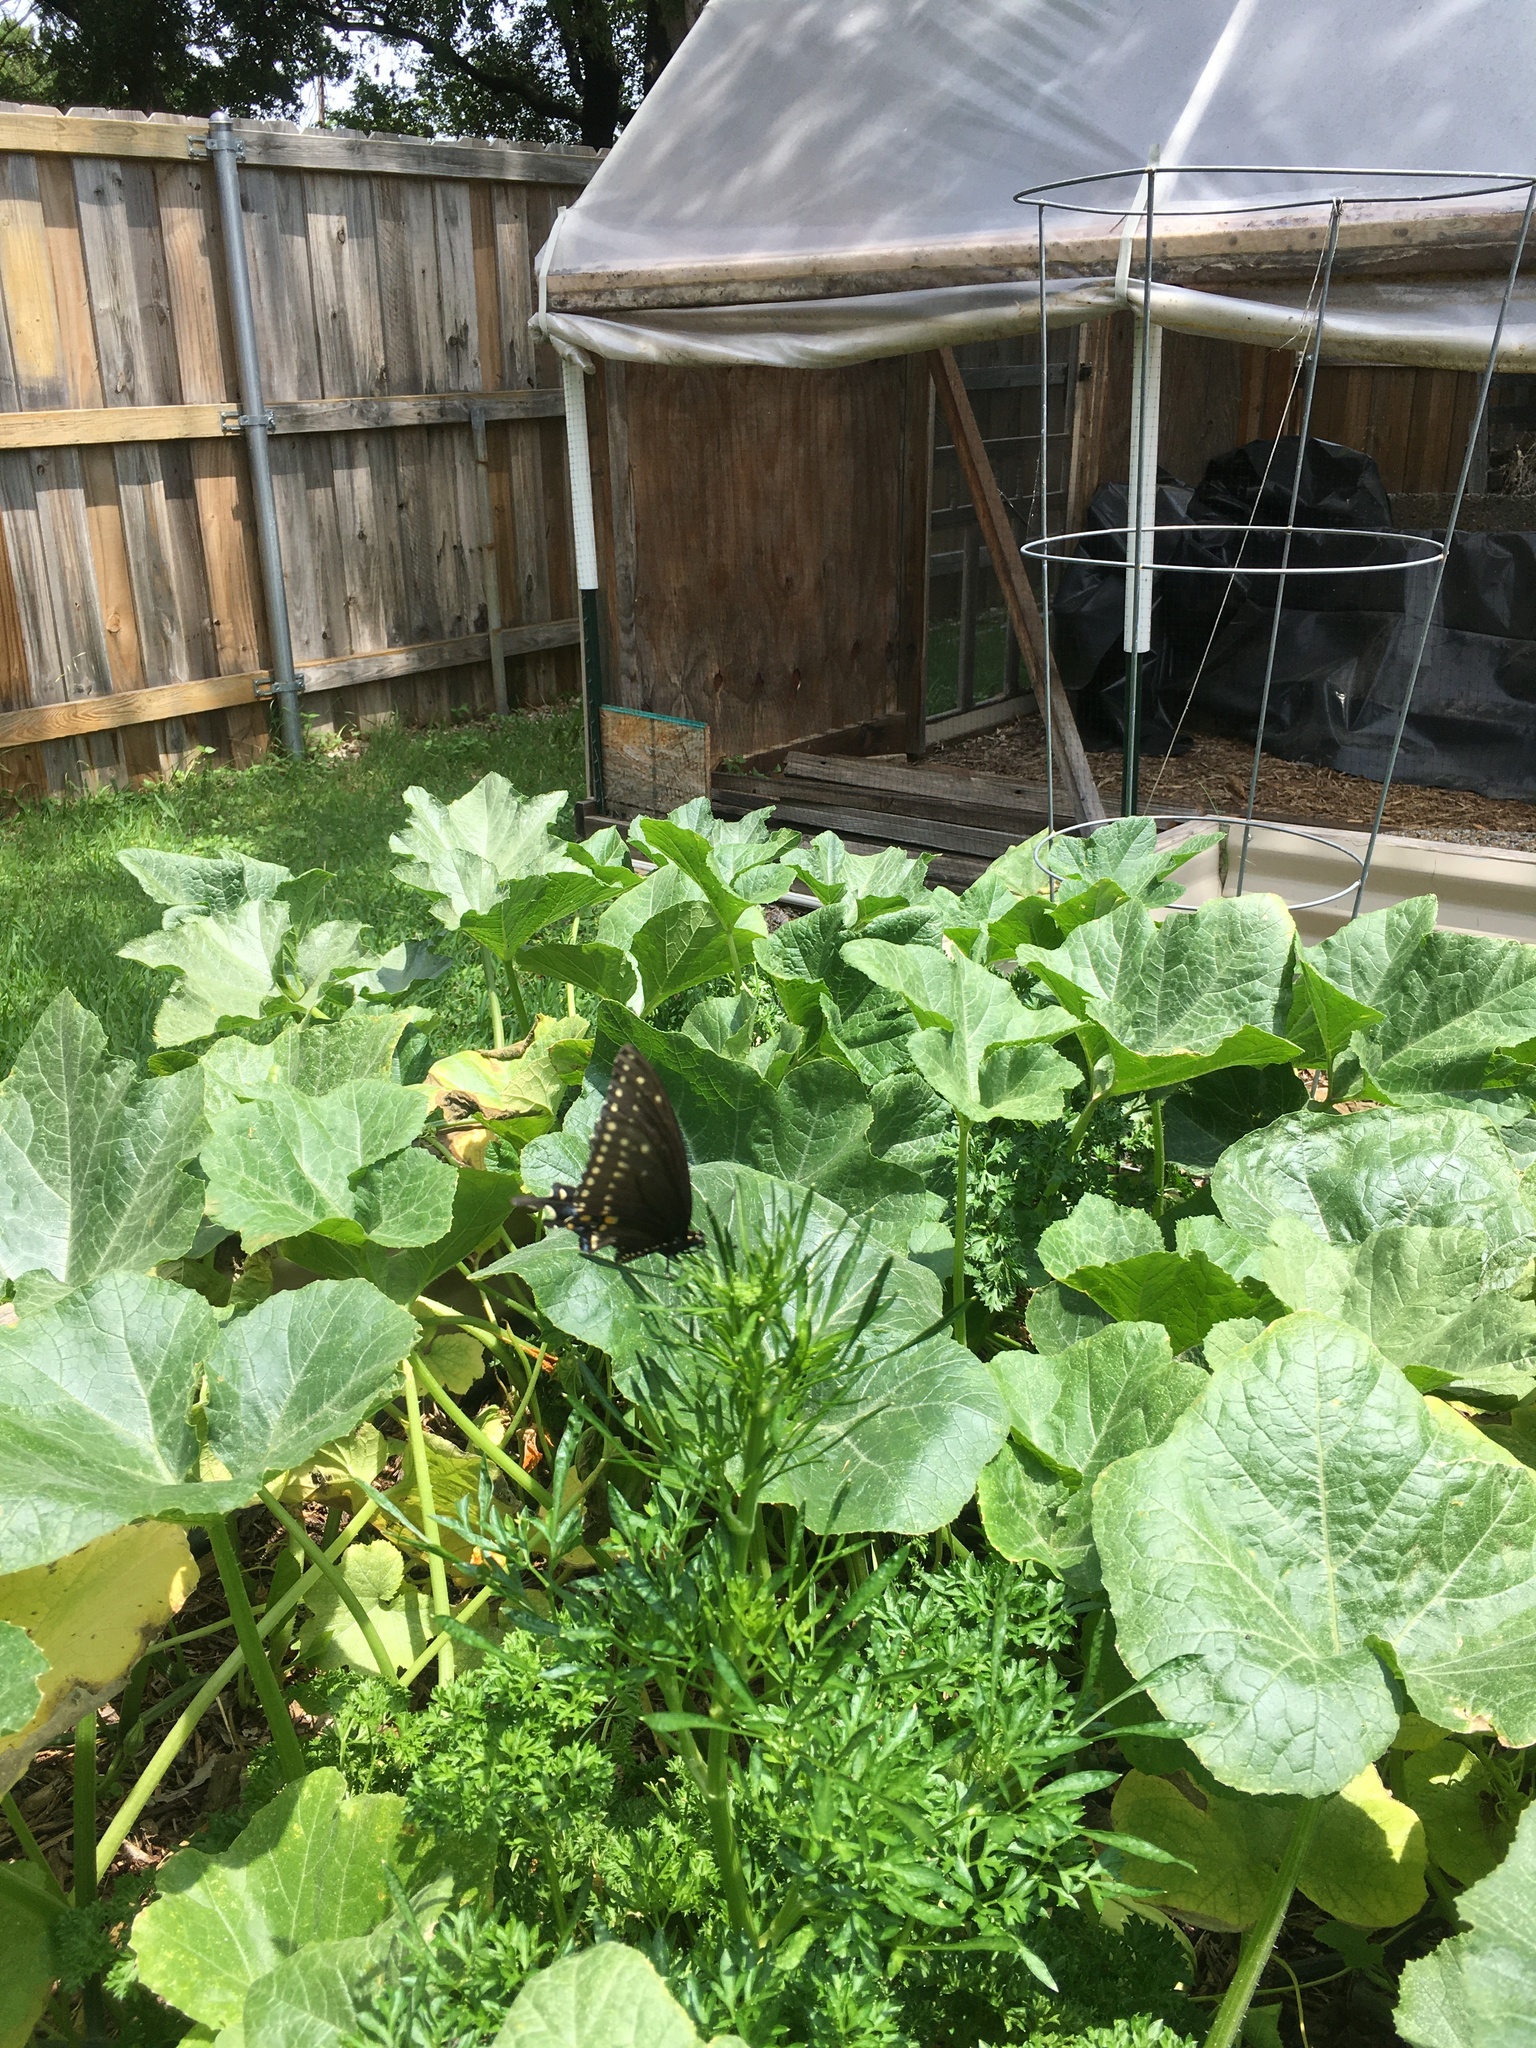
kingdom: Animalia
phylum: Arthropoda
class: Insecta
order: Lepidoptera
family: Papilionidae
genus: Papilio
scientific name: Papilio polyxenes
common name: Black swallowtail
